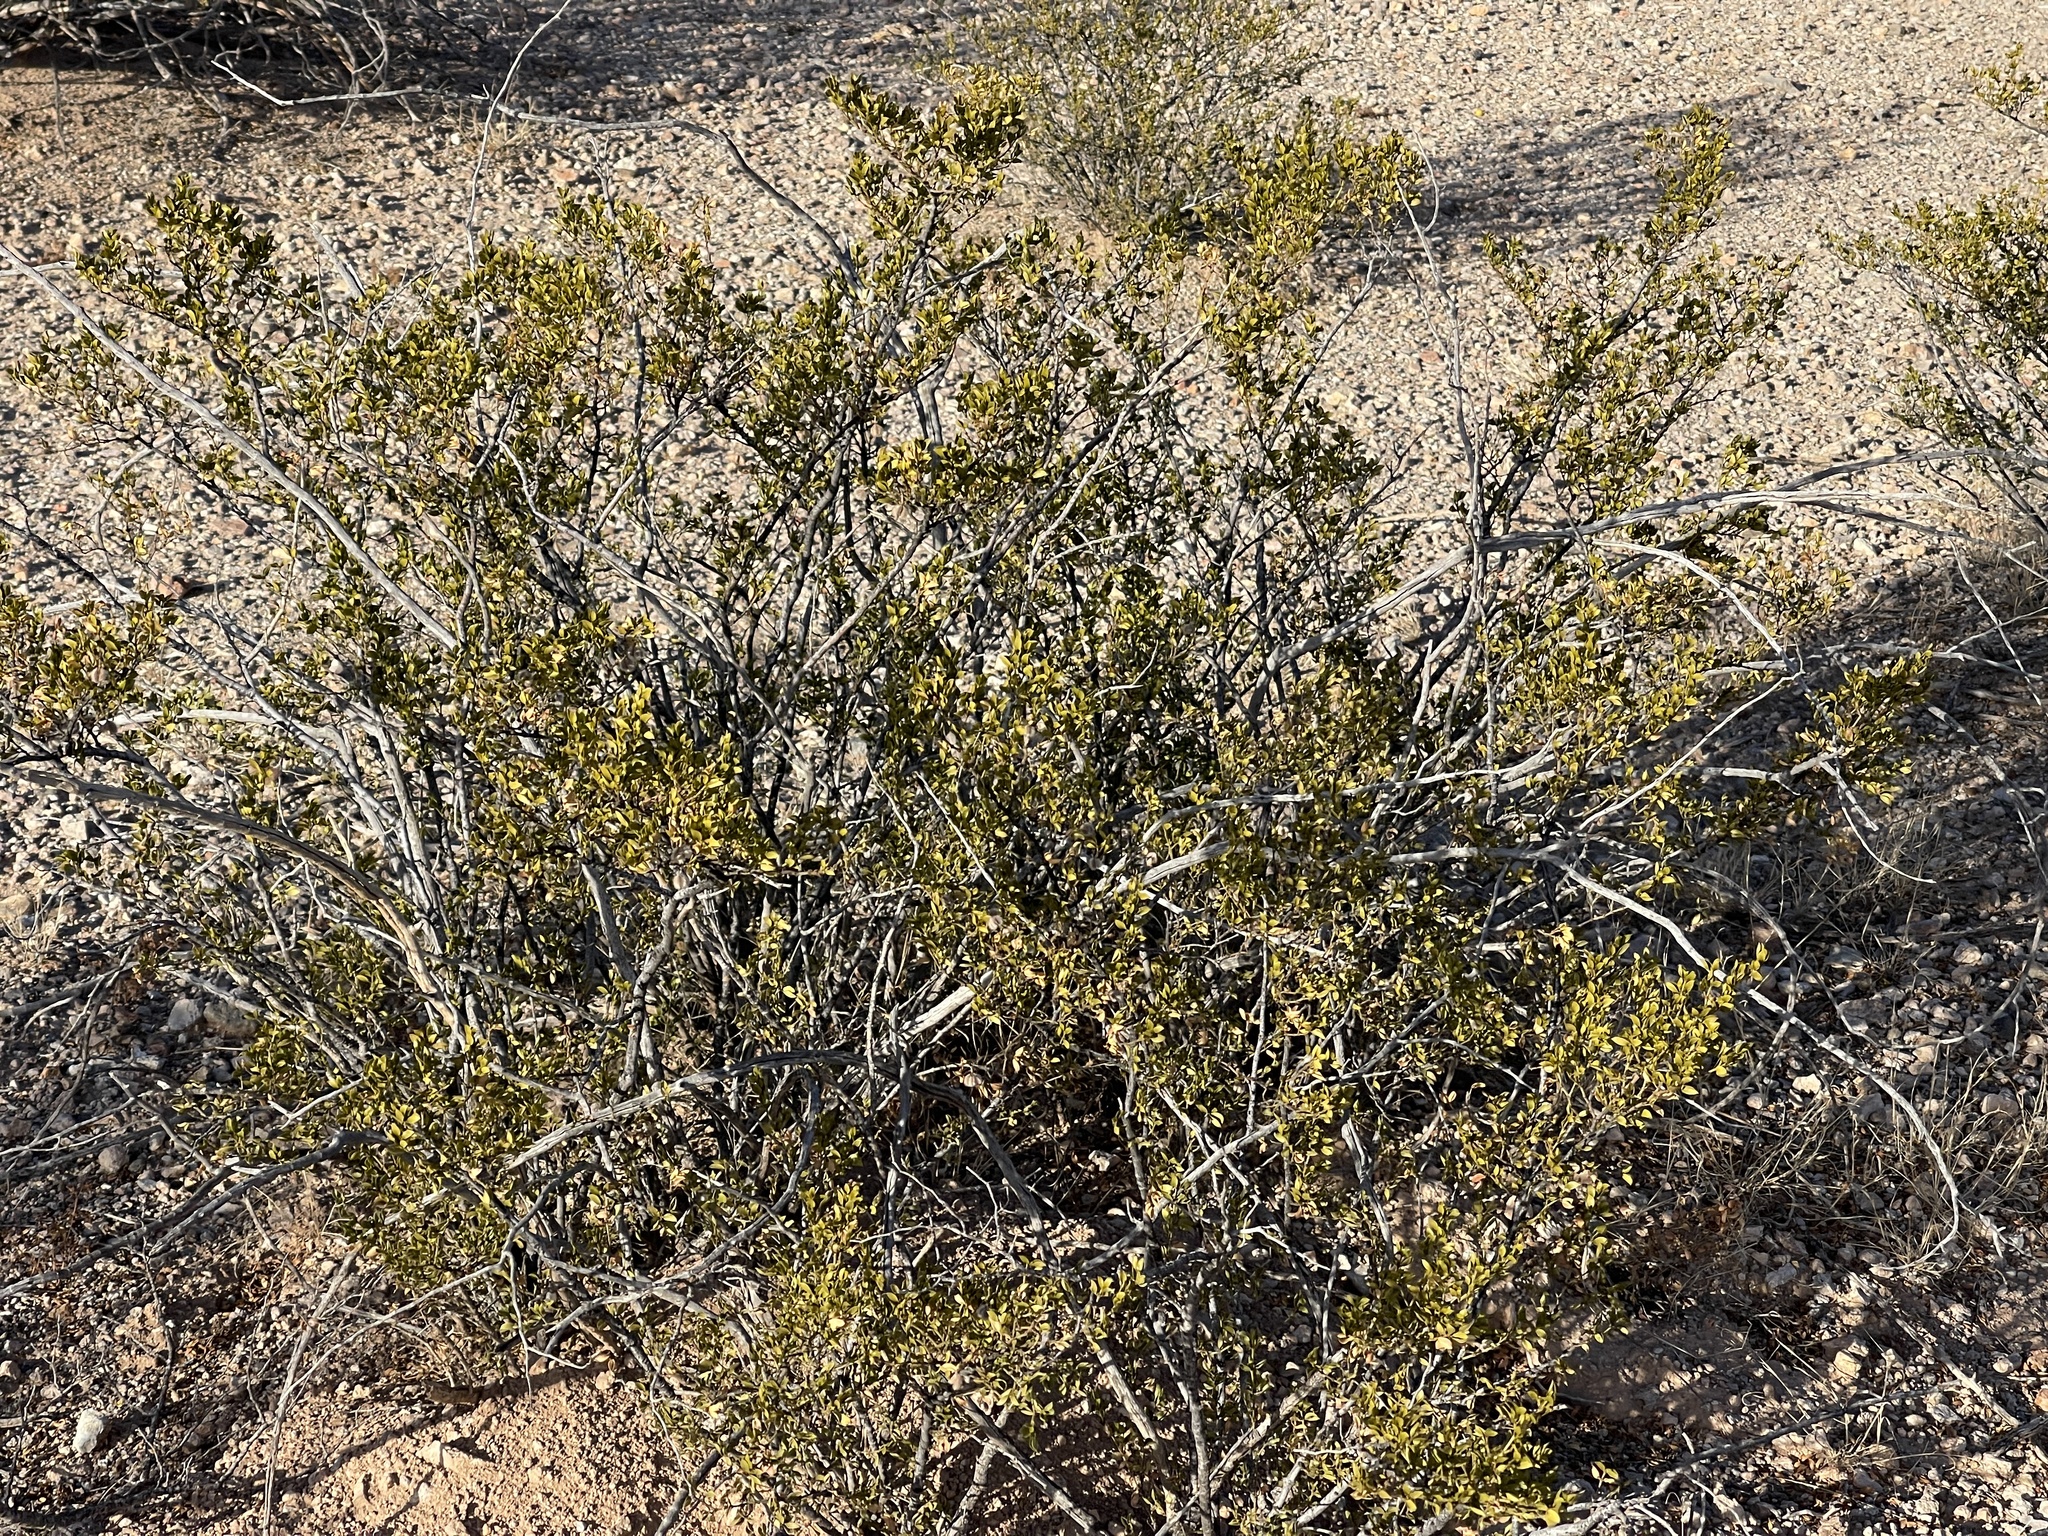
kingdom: Plantae
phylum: Tracheophyta
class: Magnoliopsida
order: Zygophyllales
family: Zygophyllaceae
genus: Larrea
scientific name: Larrea tridentata
